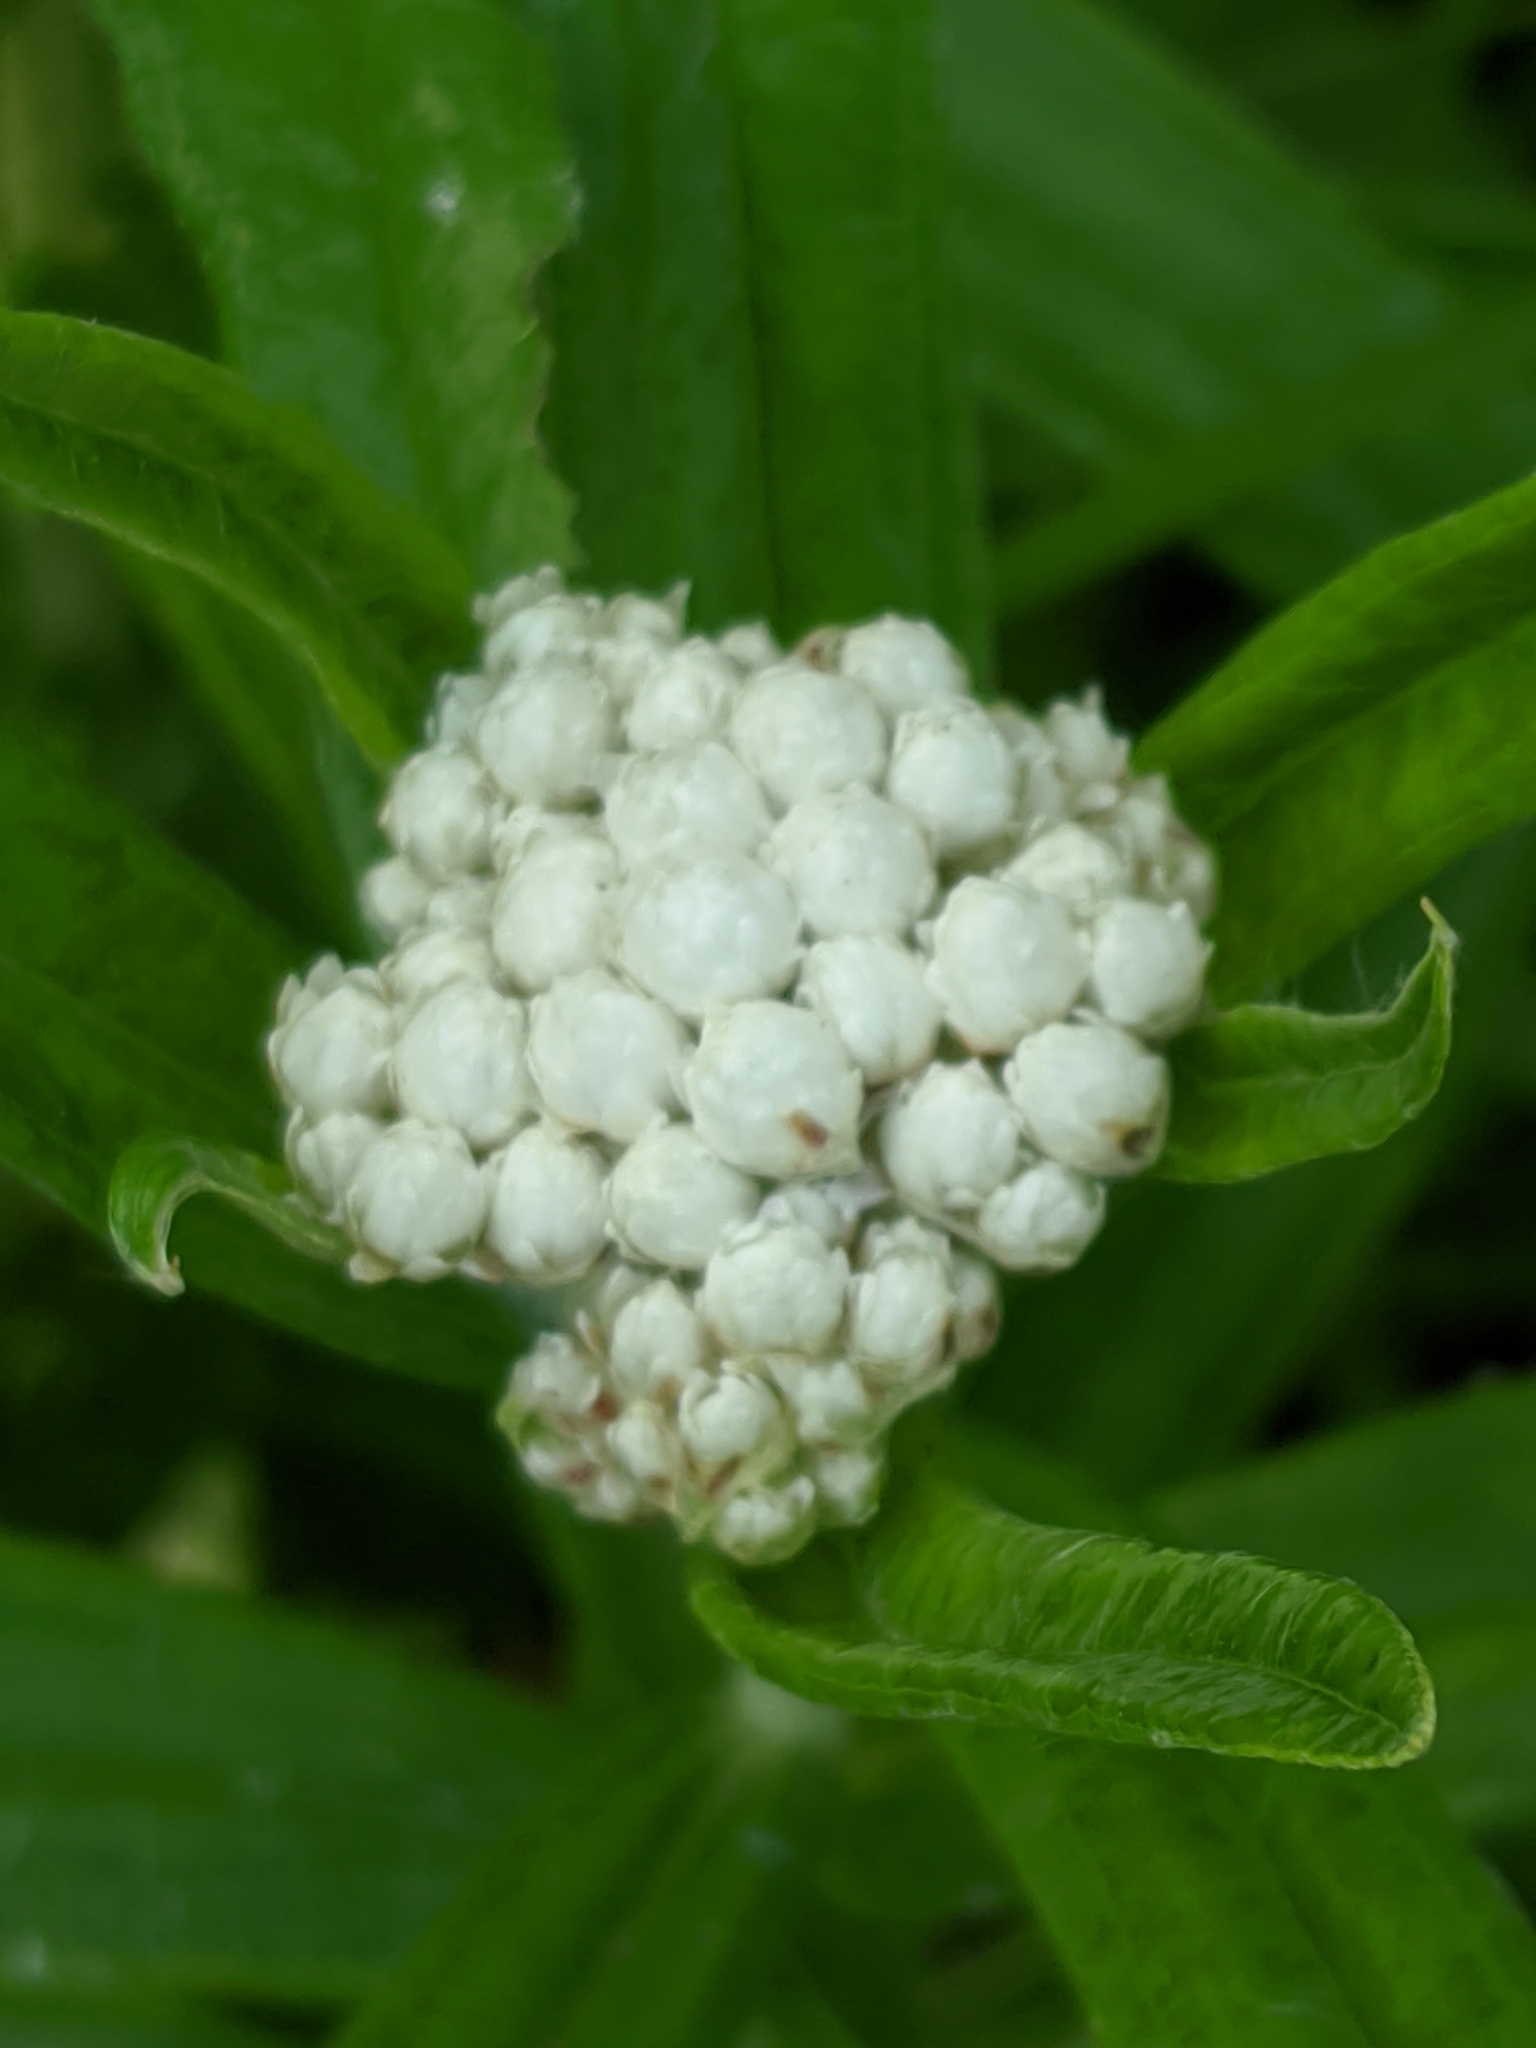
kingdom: Plantae
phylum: Tracheophyta
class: Magnoliopsida
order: Asterales
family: Asteraceae
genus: Anaphalis
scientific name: Anaphalis margaritacea
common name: Pearly everlasting
